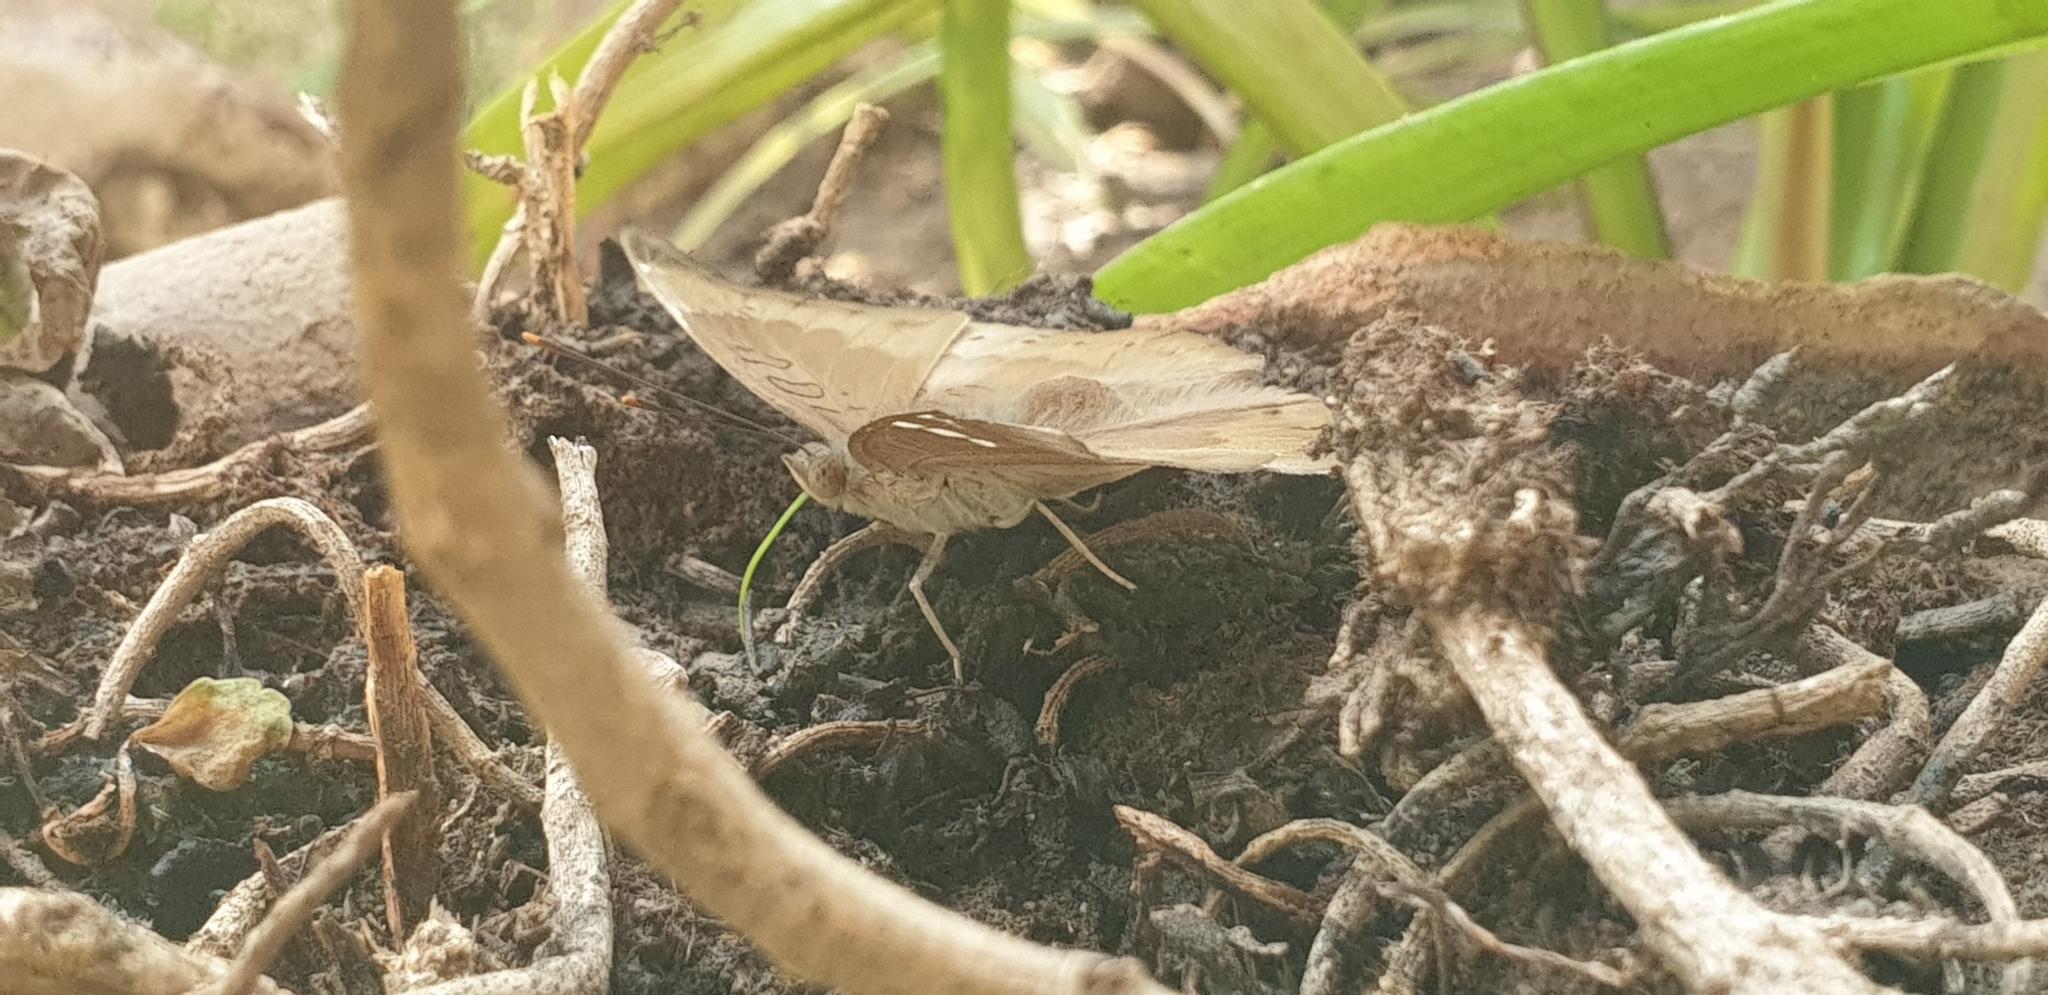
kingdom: Animalia
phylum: Arthropoda
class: Insecta
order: Lepidoptera
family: Nymphalidae
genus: Euthalia
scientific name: Euthalia aconthea
